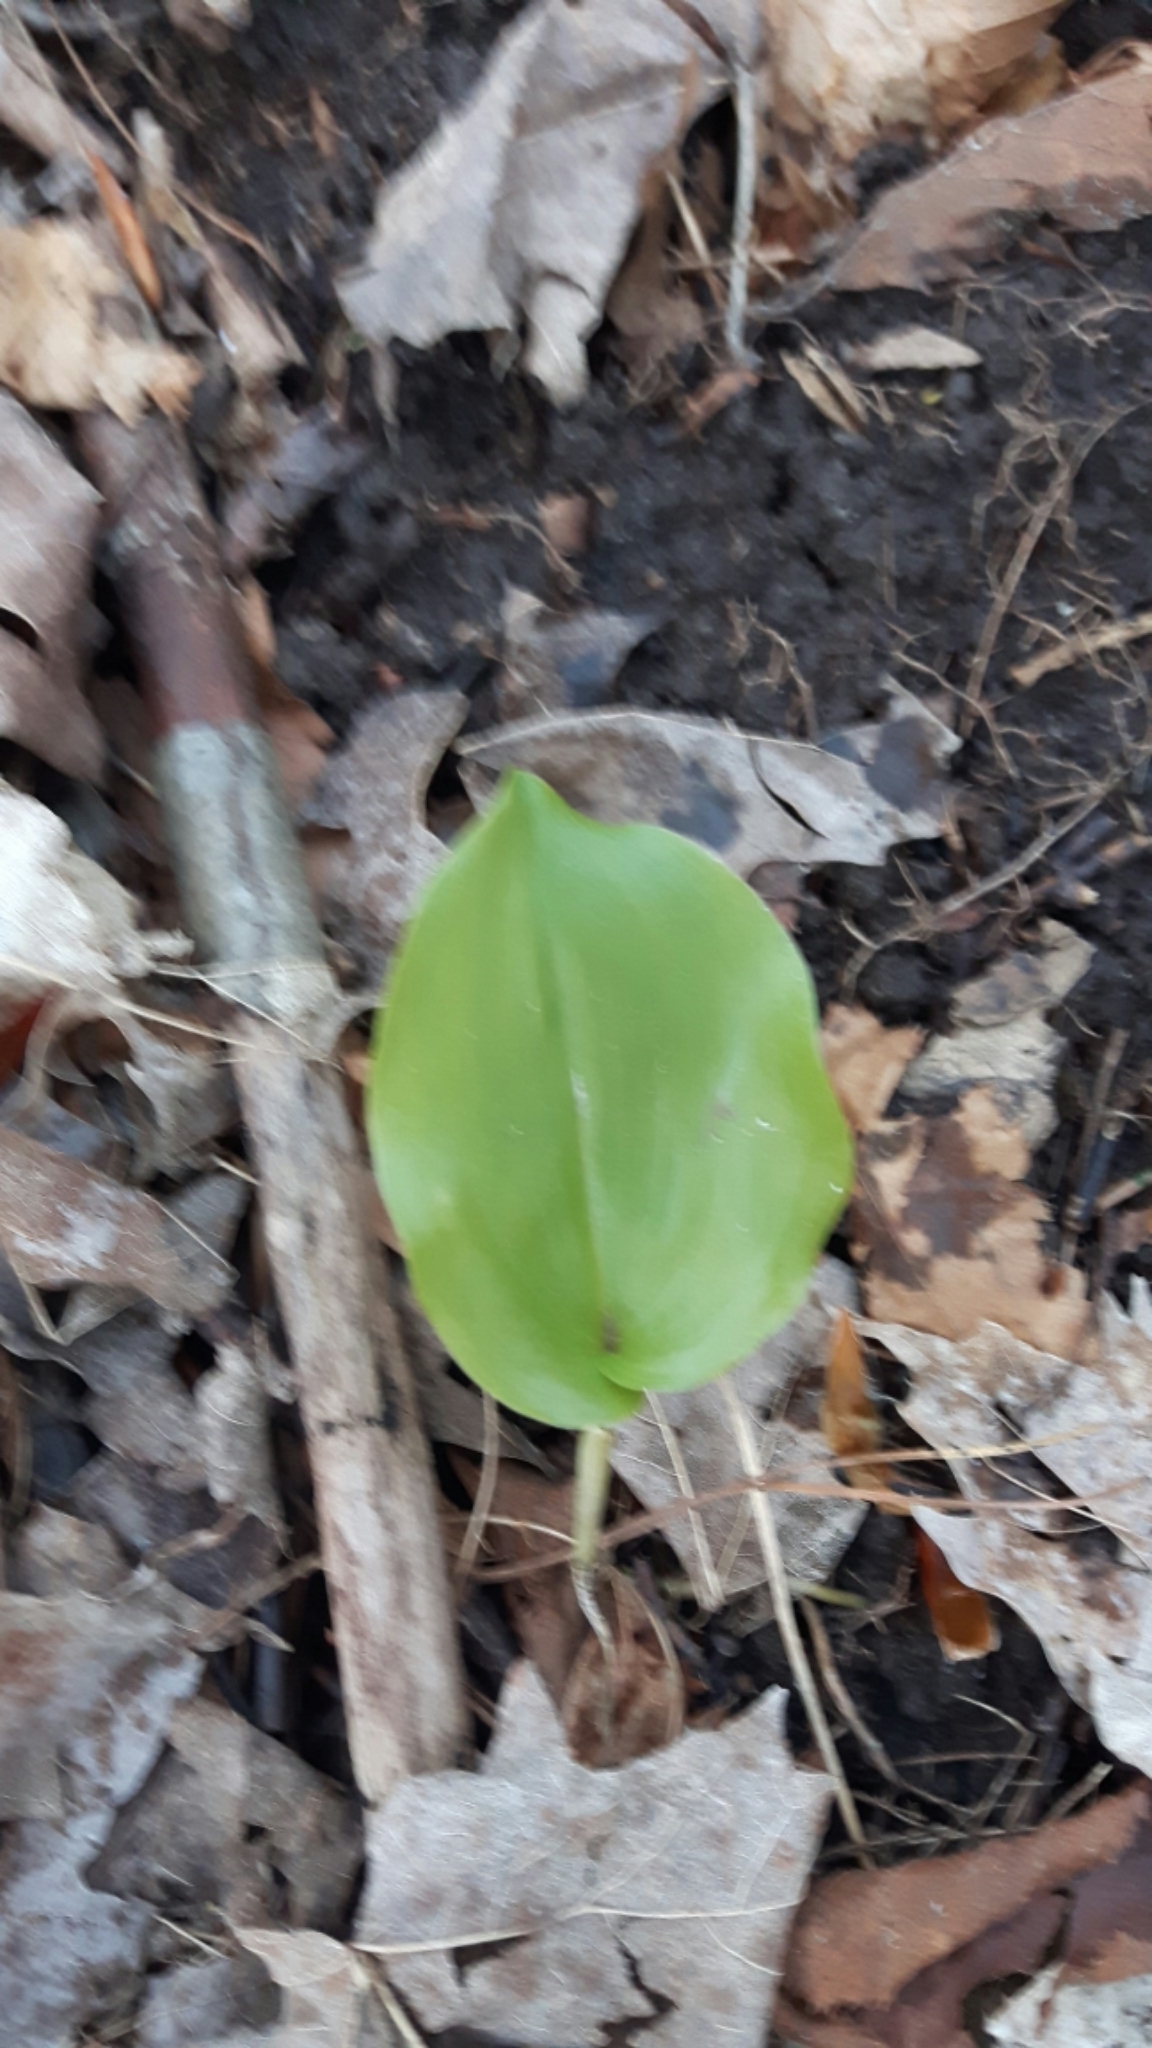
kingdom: Plantae
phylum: Tracheophyta
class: Liliopsida
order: Asparagales
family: Asparagaceae
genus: Maianthemum
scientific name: Maianthemum canadense
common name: False lily-of-the-valley
